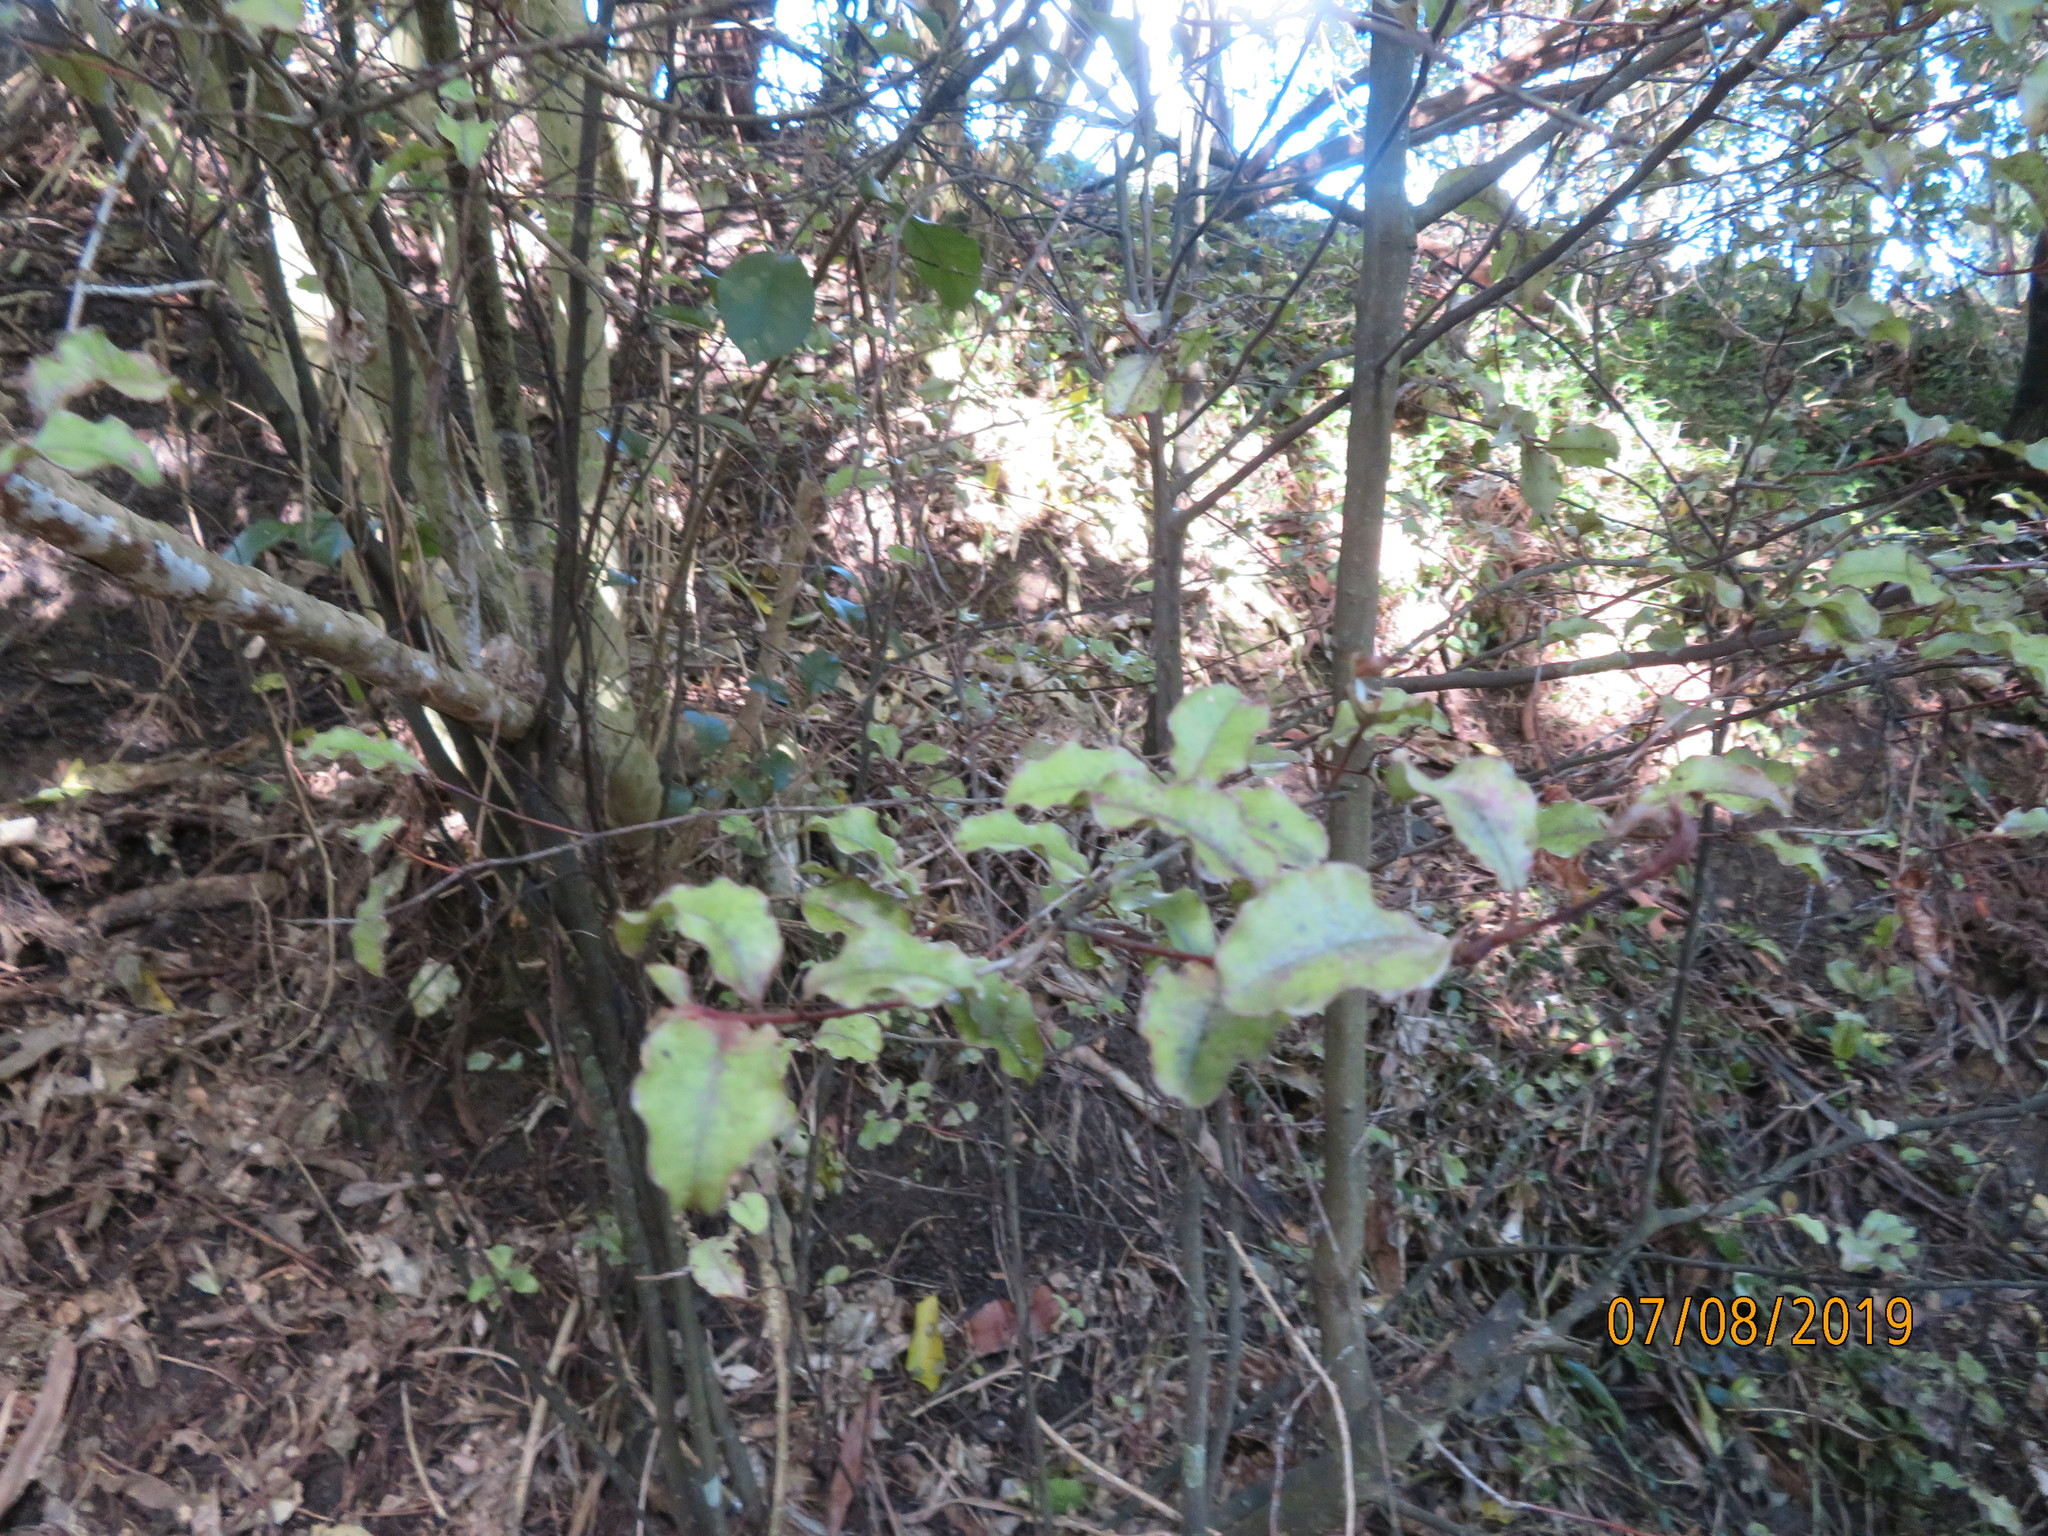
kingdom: Plantae
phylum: Tracheophyta
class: Magnoliopsida
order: Ericales
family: Primulaceae
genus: Myrsine
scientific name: Myrsine australis
